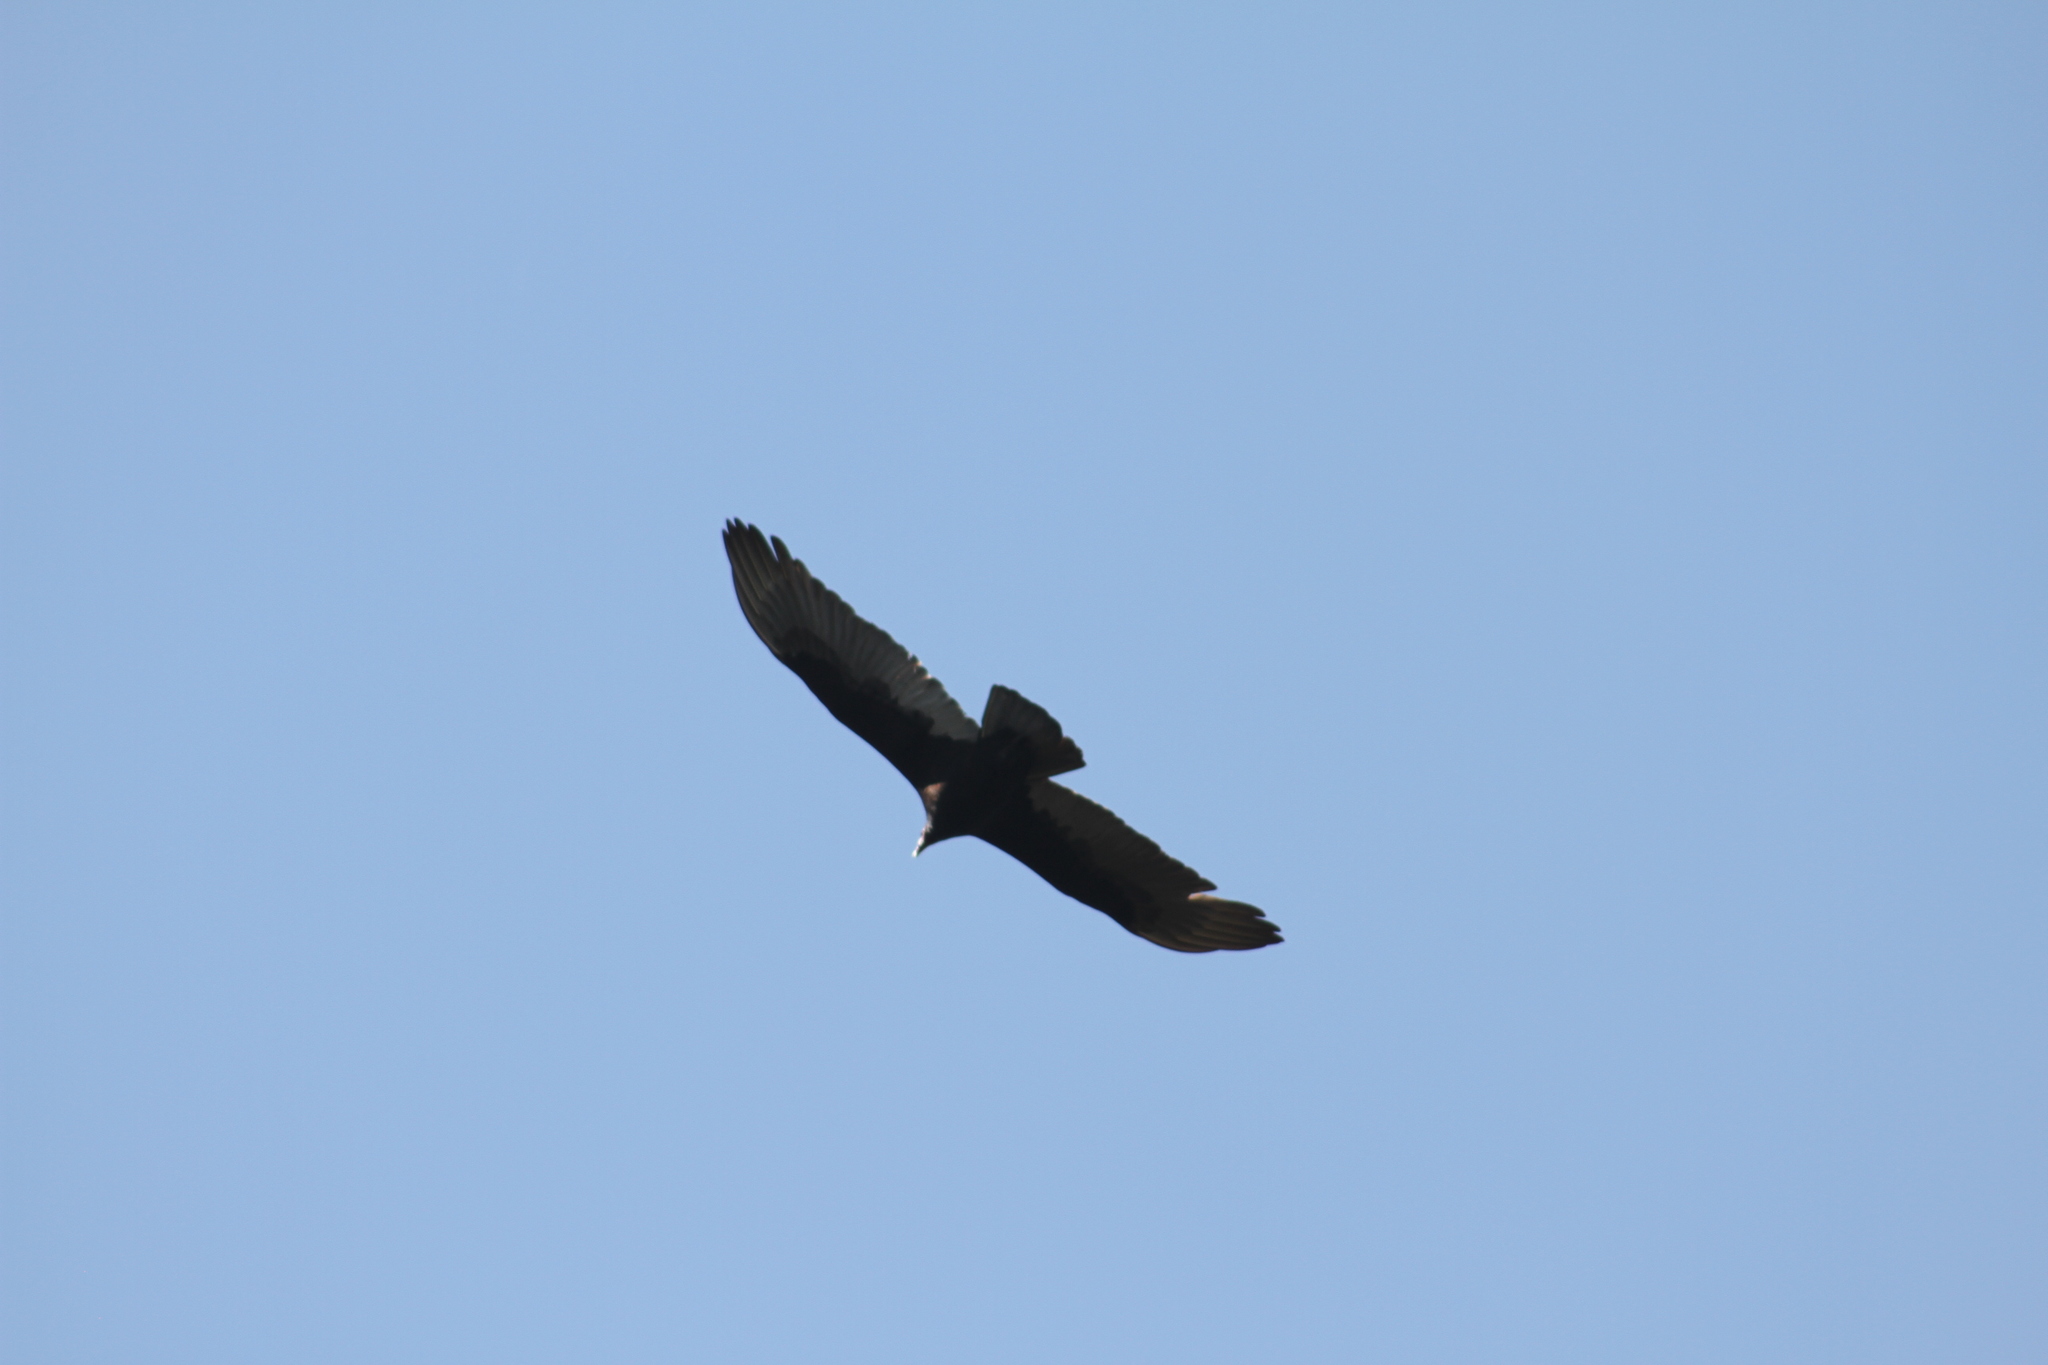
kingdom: Animalia
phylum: Chordata
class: Aves
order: Accipitriformes
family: Cathartidae
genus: Cathartes
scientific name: Cathartes aura
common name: Turkey vulture
